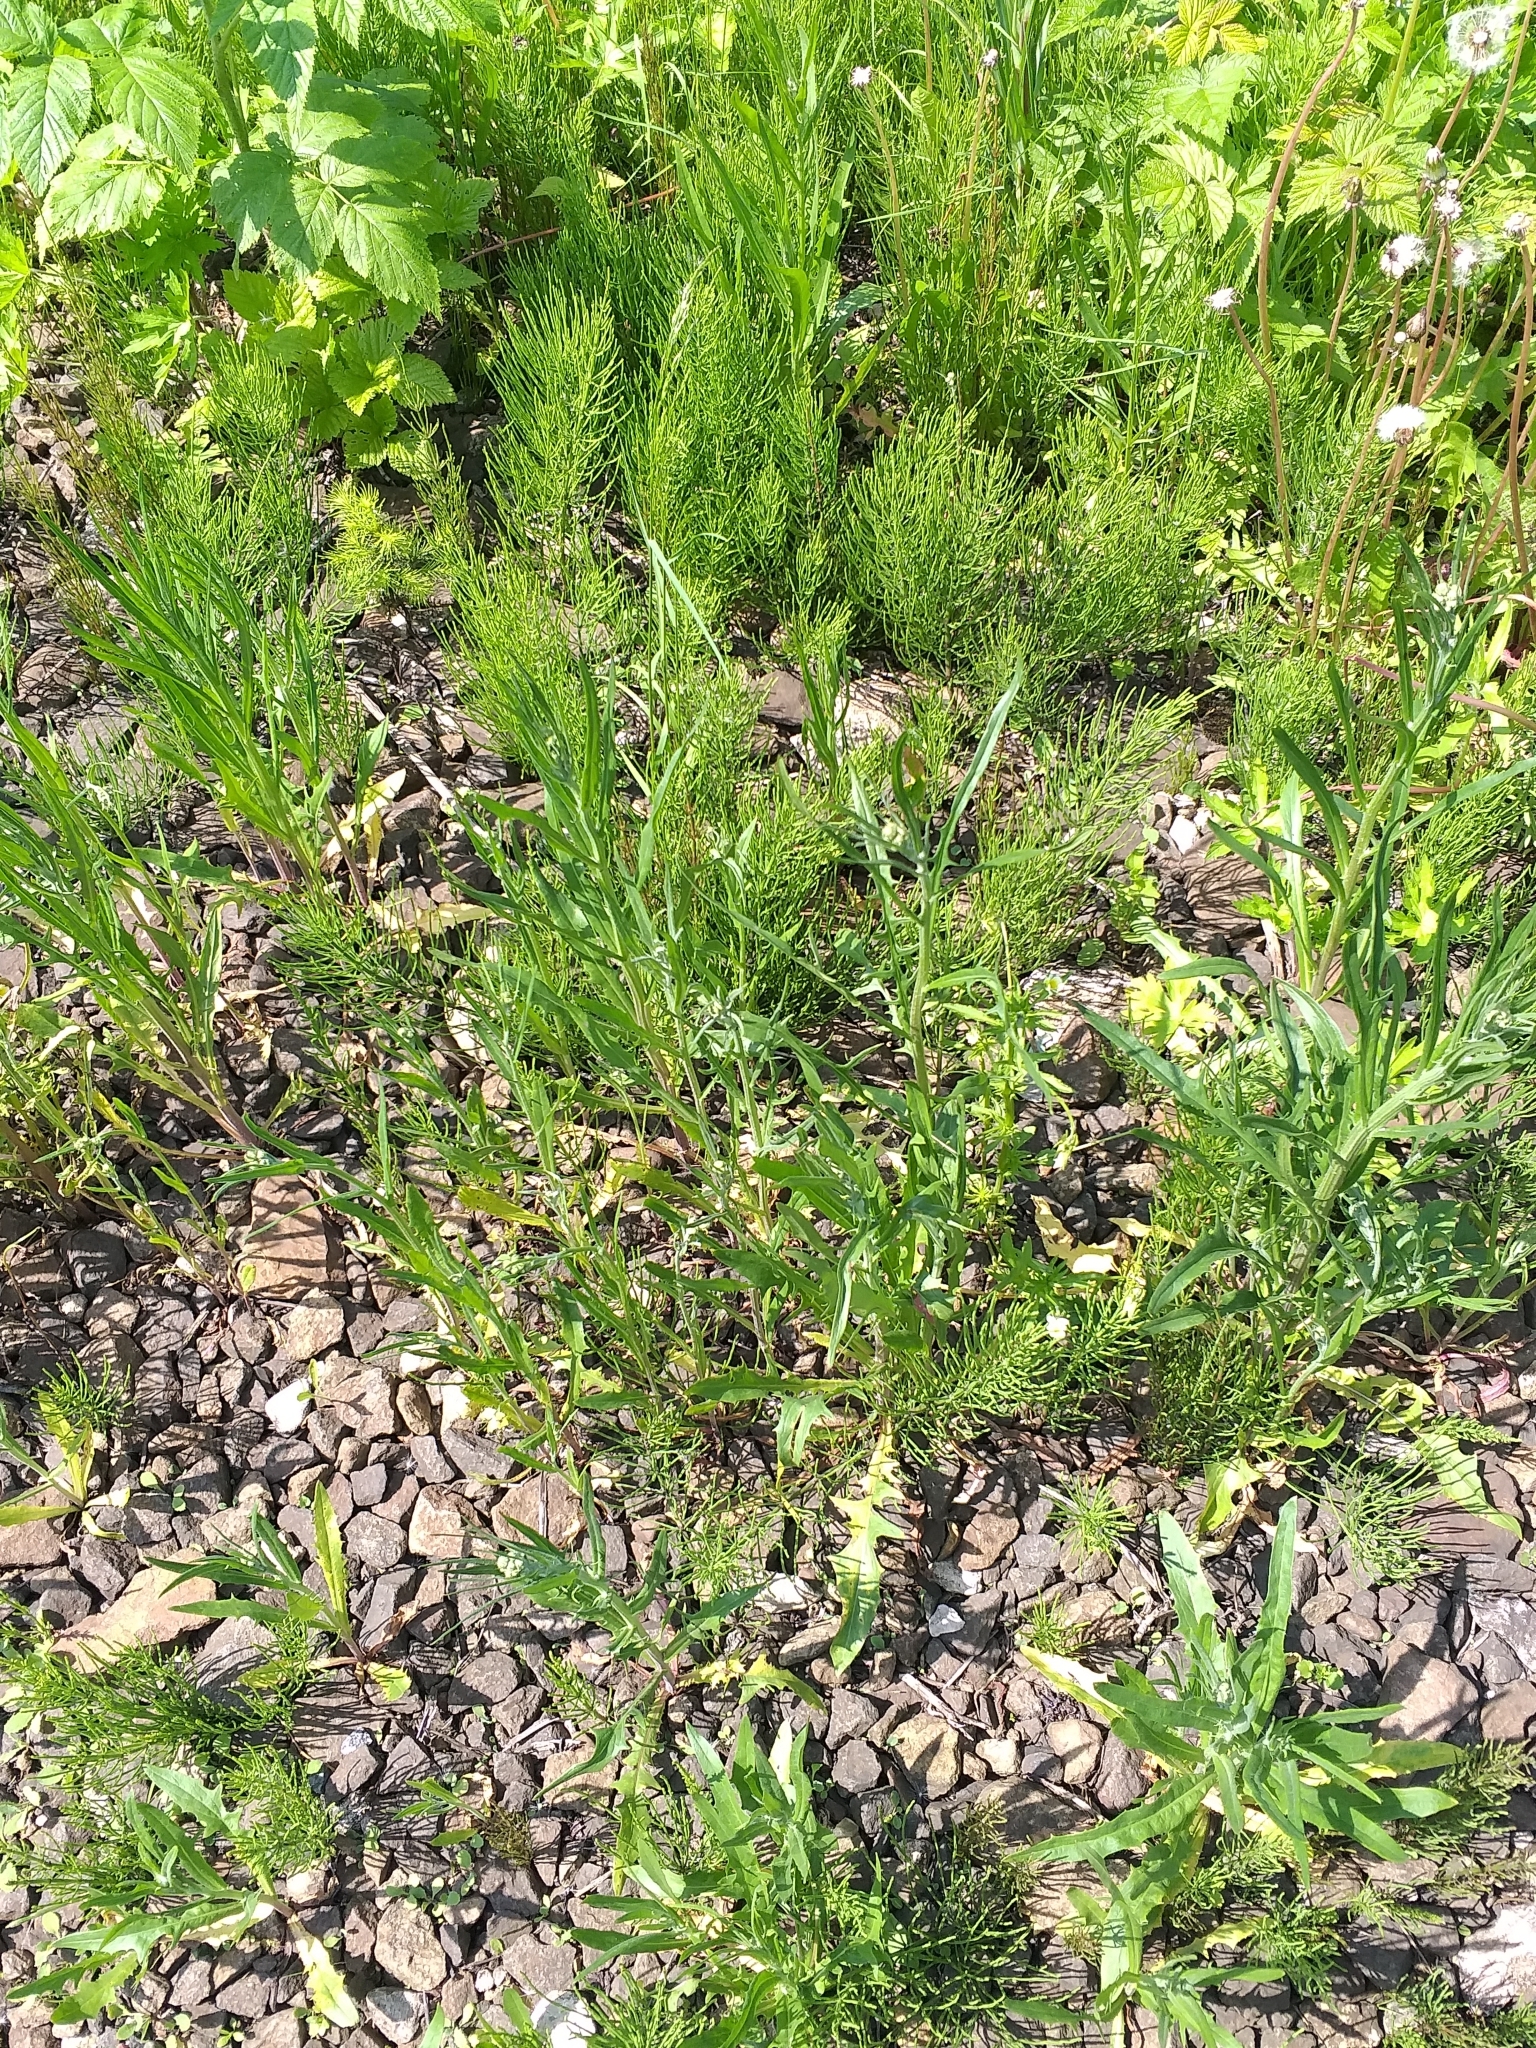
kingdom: Plantae
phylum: Tracheophyta
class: Magnoliopsida
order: Asterales
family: Asteraceae
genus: Crepis
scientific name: Crepis tectorum
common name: Narrow-leaved hawk's-beard
